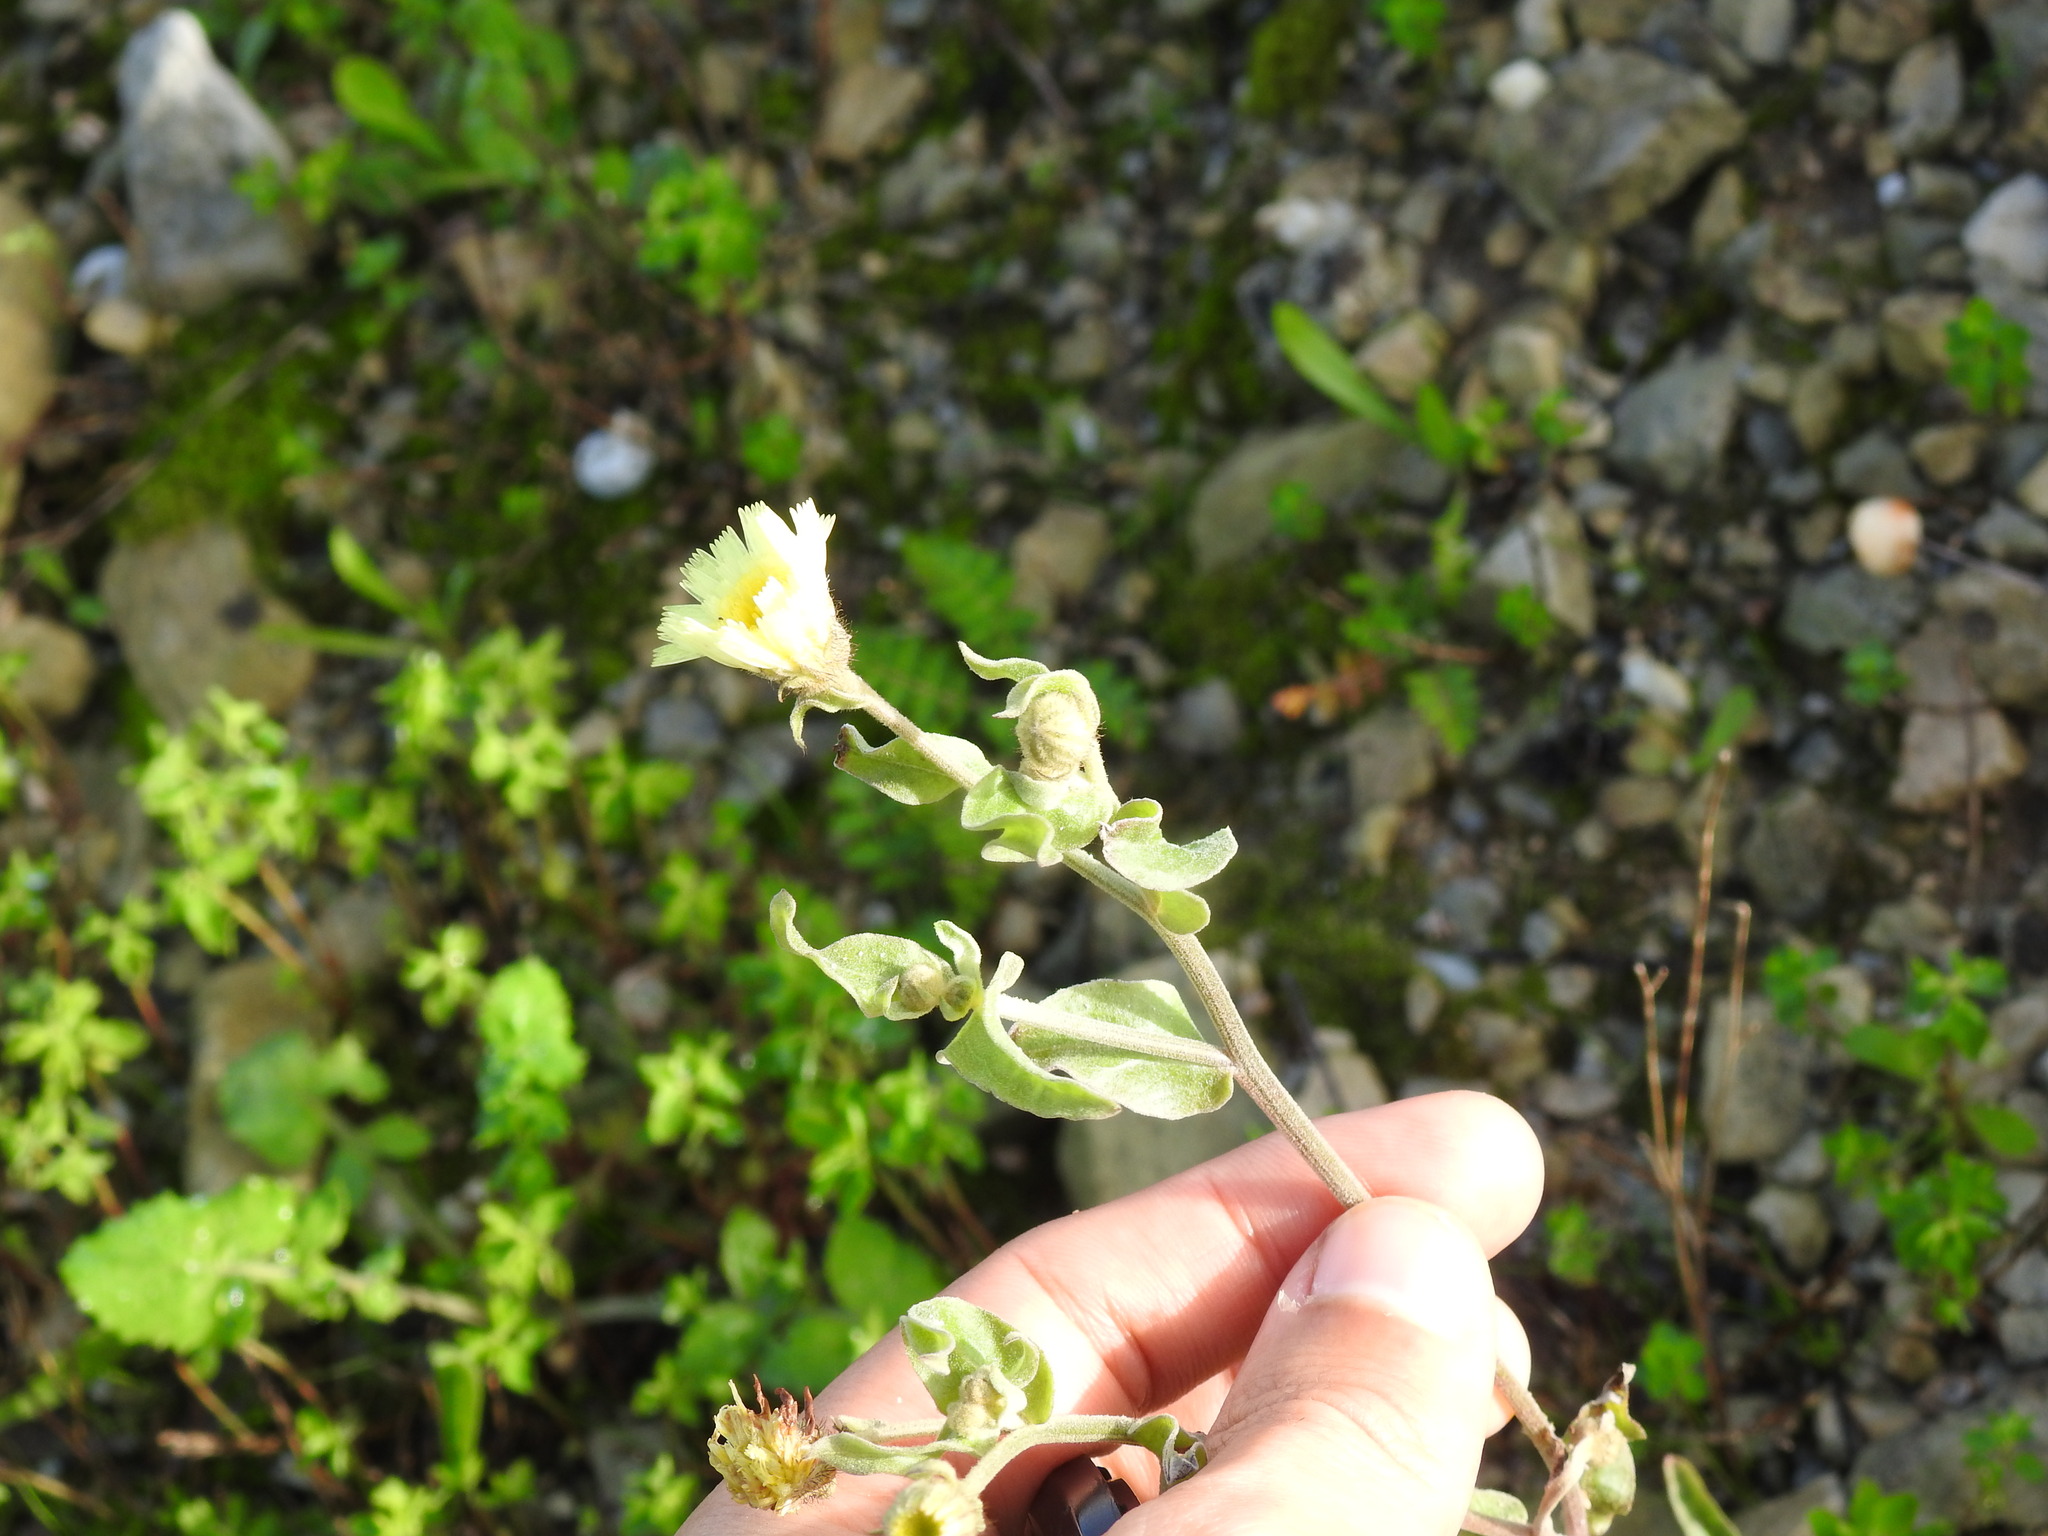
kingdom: Plantae
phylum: Tracheophyta
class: Magnoliopsida
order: Asterales
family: Asteraceae
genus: Andryala
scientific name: Andryala integrifolia
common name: Common andryala
